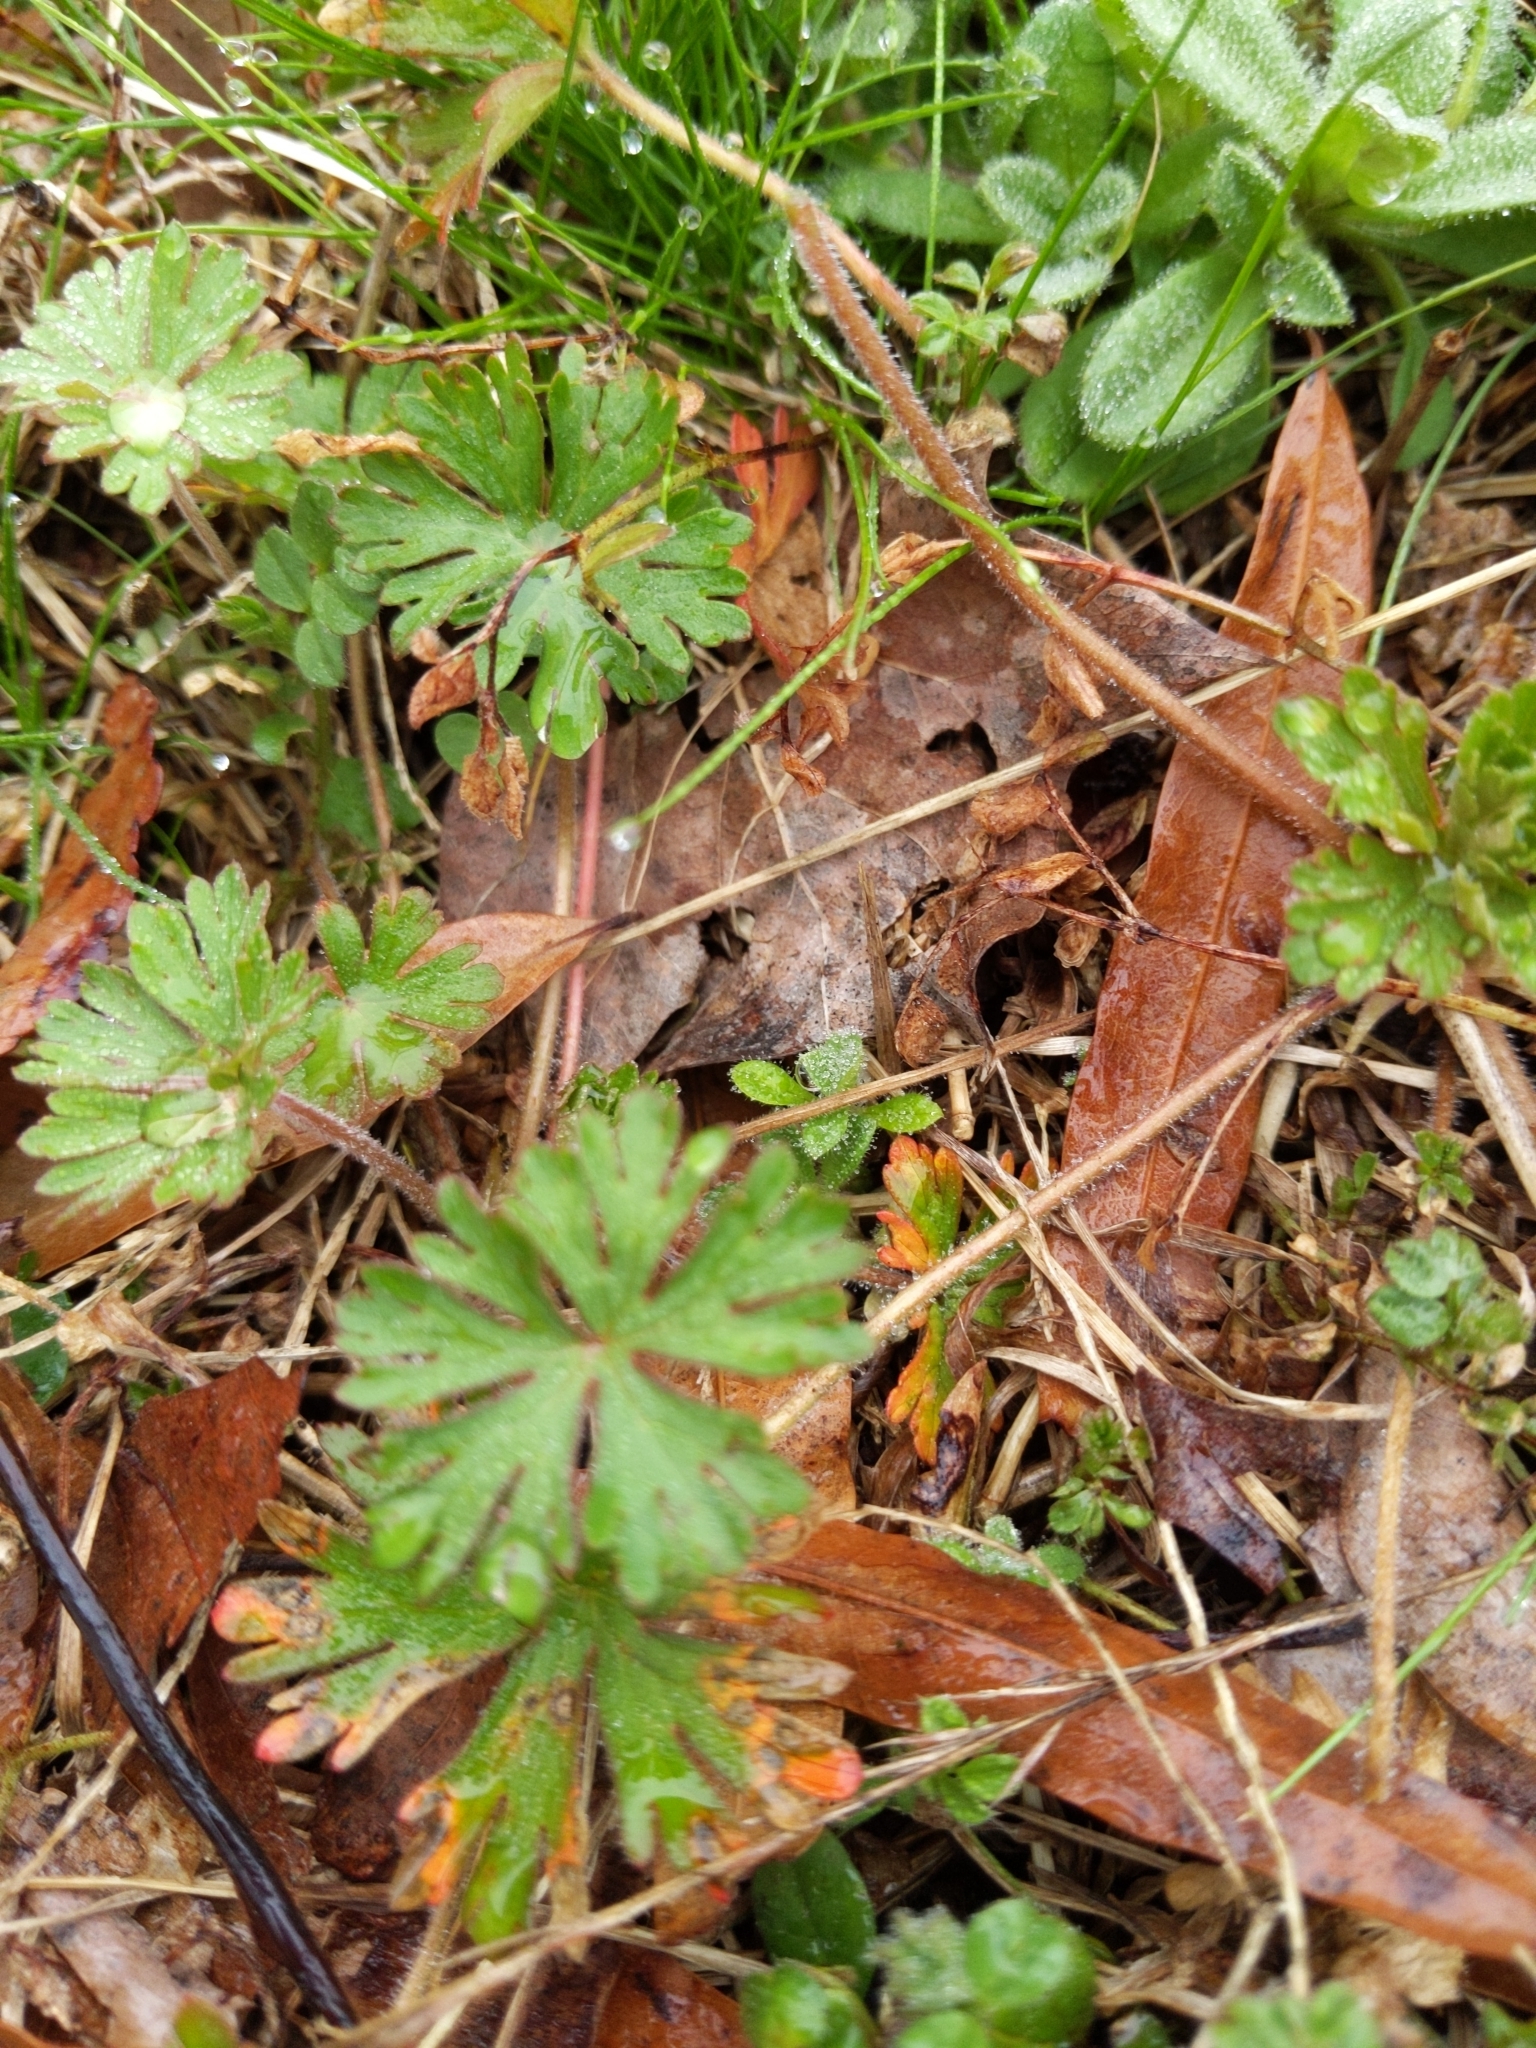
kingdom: Plantae
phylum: Tracheophyta
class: Magnoliopsida
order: Geraniales
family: Geraniaceae
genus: Geranium
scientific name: Geranium carolinianum
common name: Carolina crane's-bill
